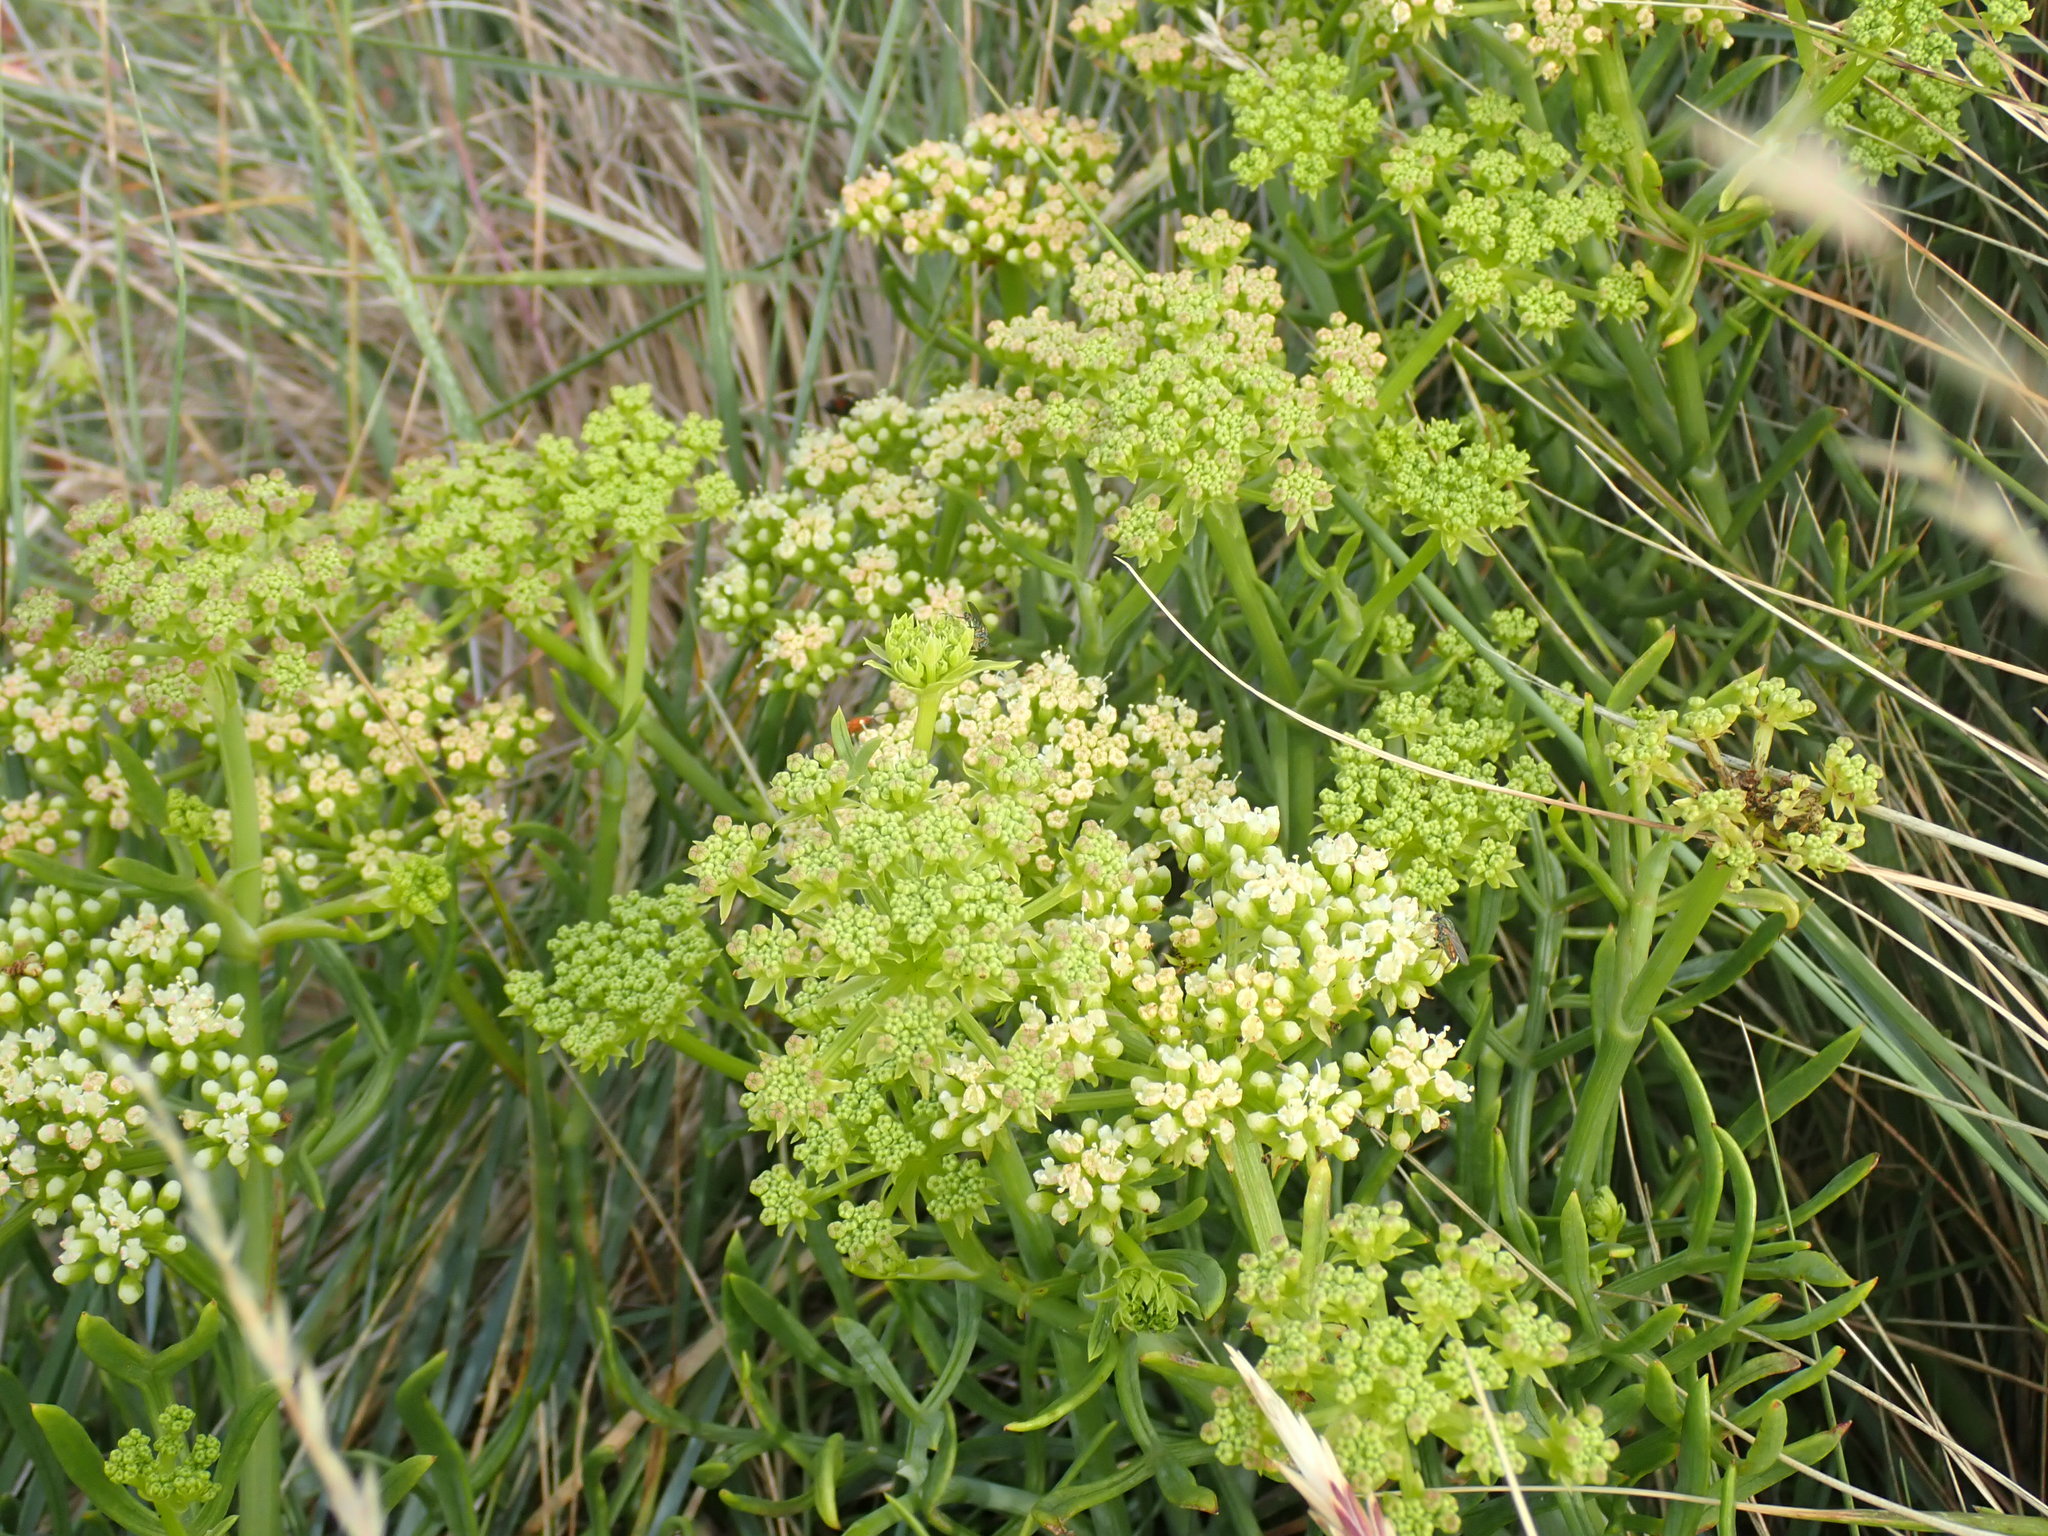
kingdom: Plantae
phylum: Tracheophyta
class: Magnoliopsida
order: Apiales
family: Apiaceae
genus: Crithmum
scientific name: Crithmum maritimum
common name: Rock samphire
